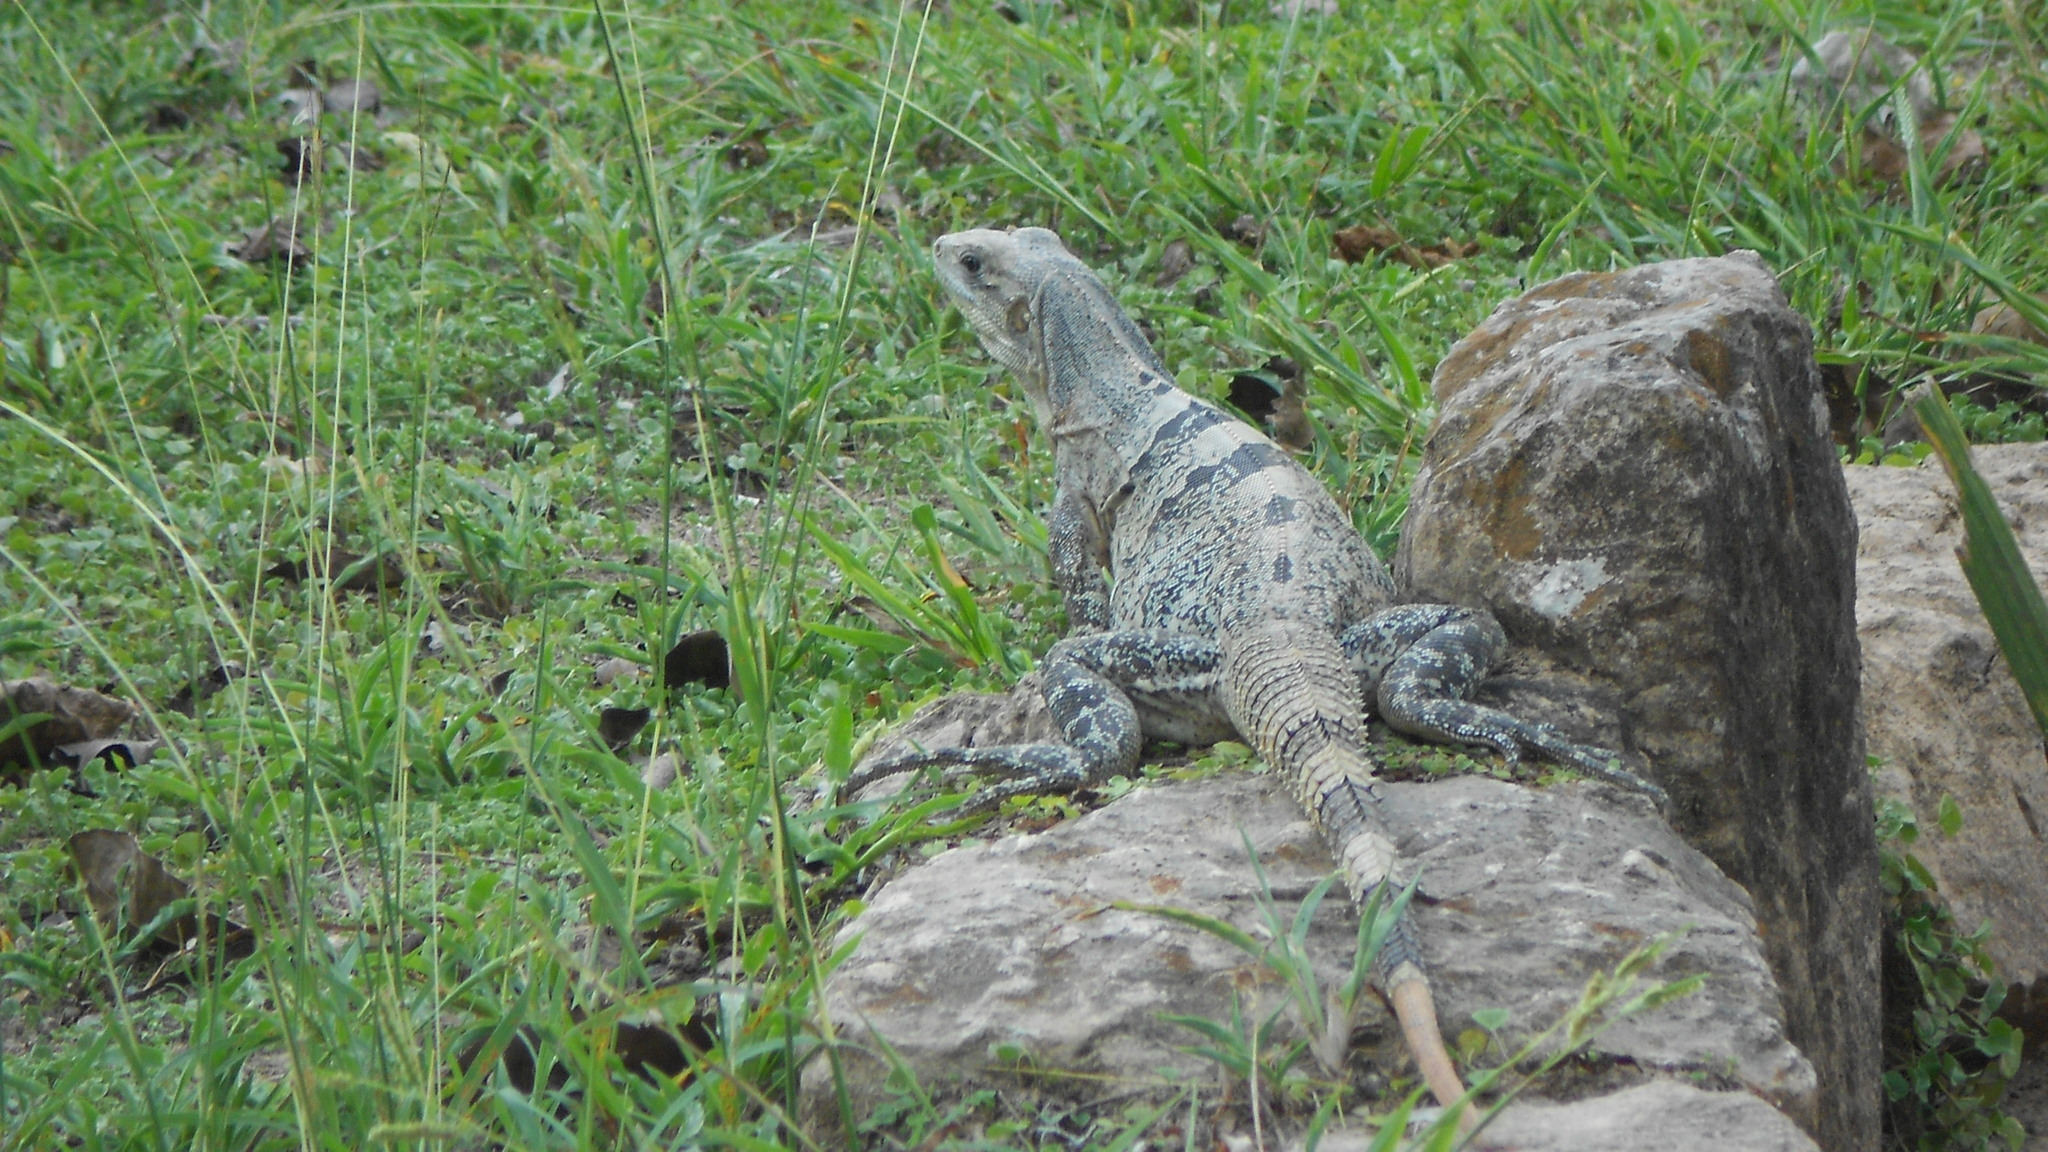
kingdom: Animalia
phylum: Chordata
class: Squamata
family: Iguanidae
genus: Ctenosaura
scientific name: Ctenosaura similis
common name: Black spiny-tailed iguana
